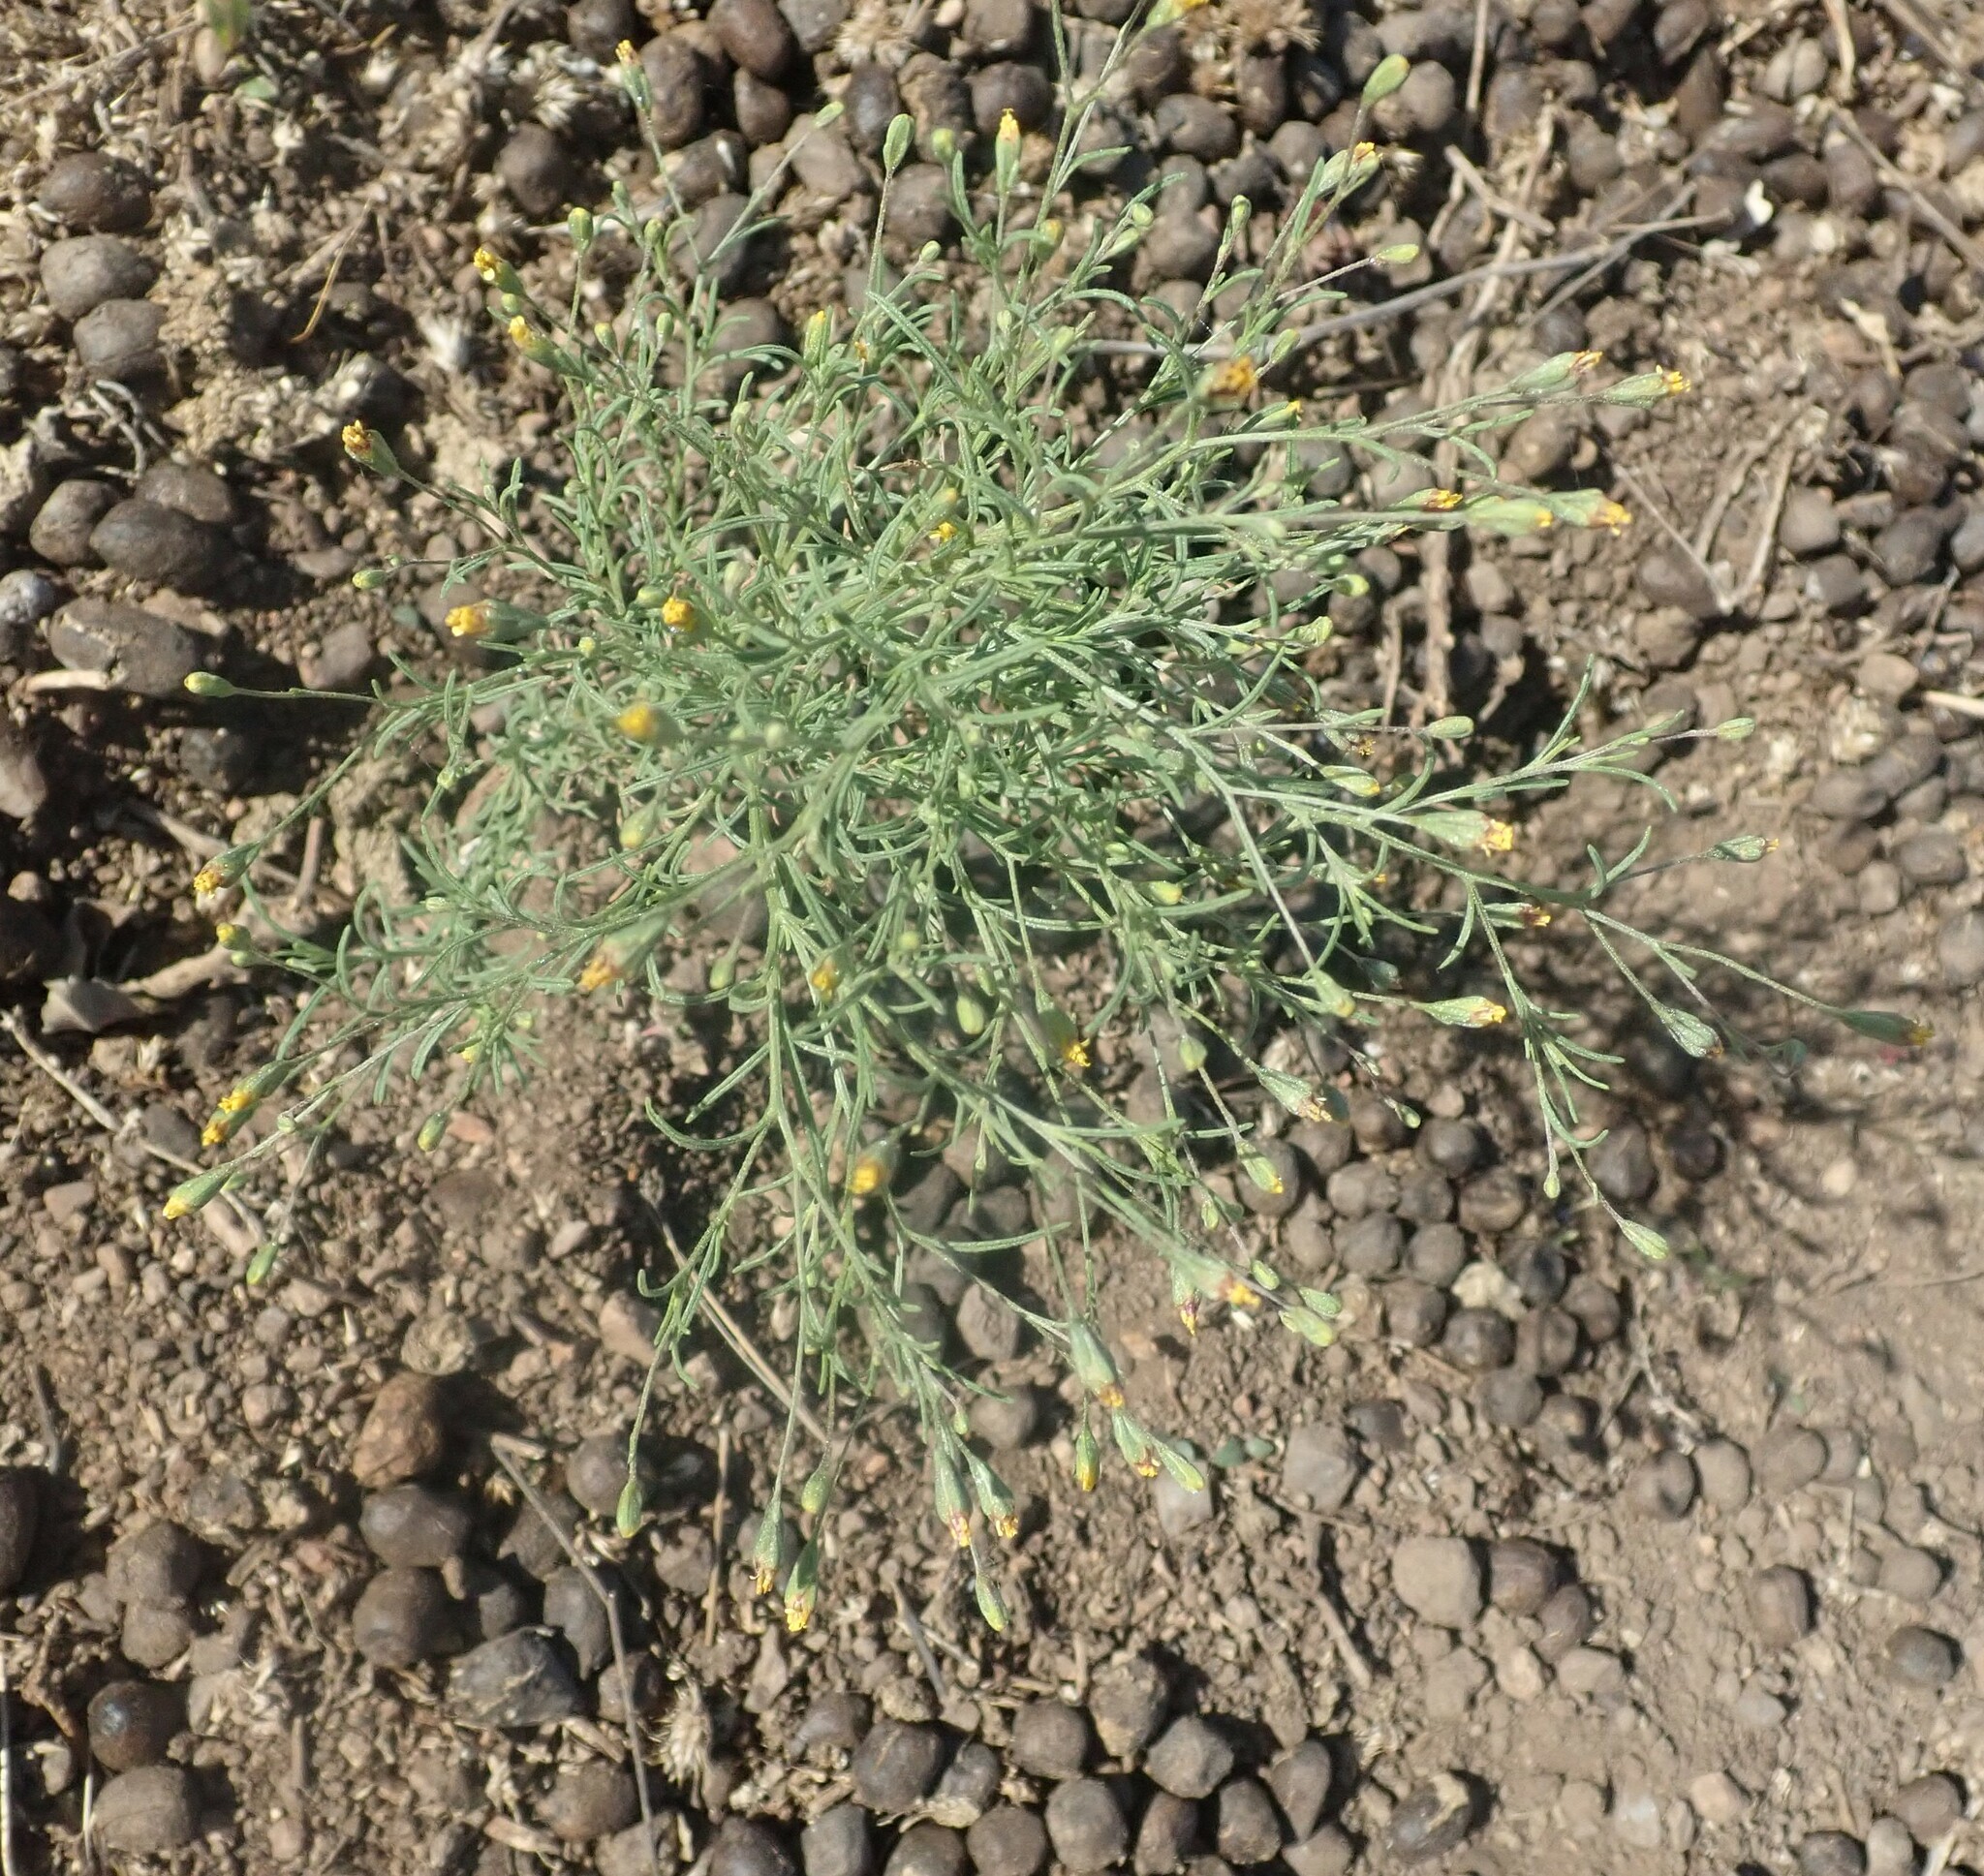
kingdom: Plantae
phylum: Tracheophyta
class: Magnoliopsida
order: Asterales
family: Asteraceae
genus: Schkuhria
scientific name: Schkuhria pinnata
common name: Dwarf marigold
